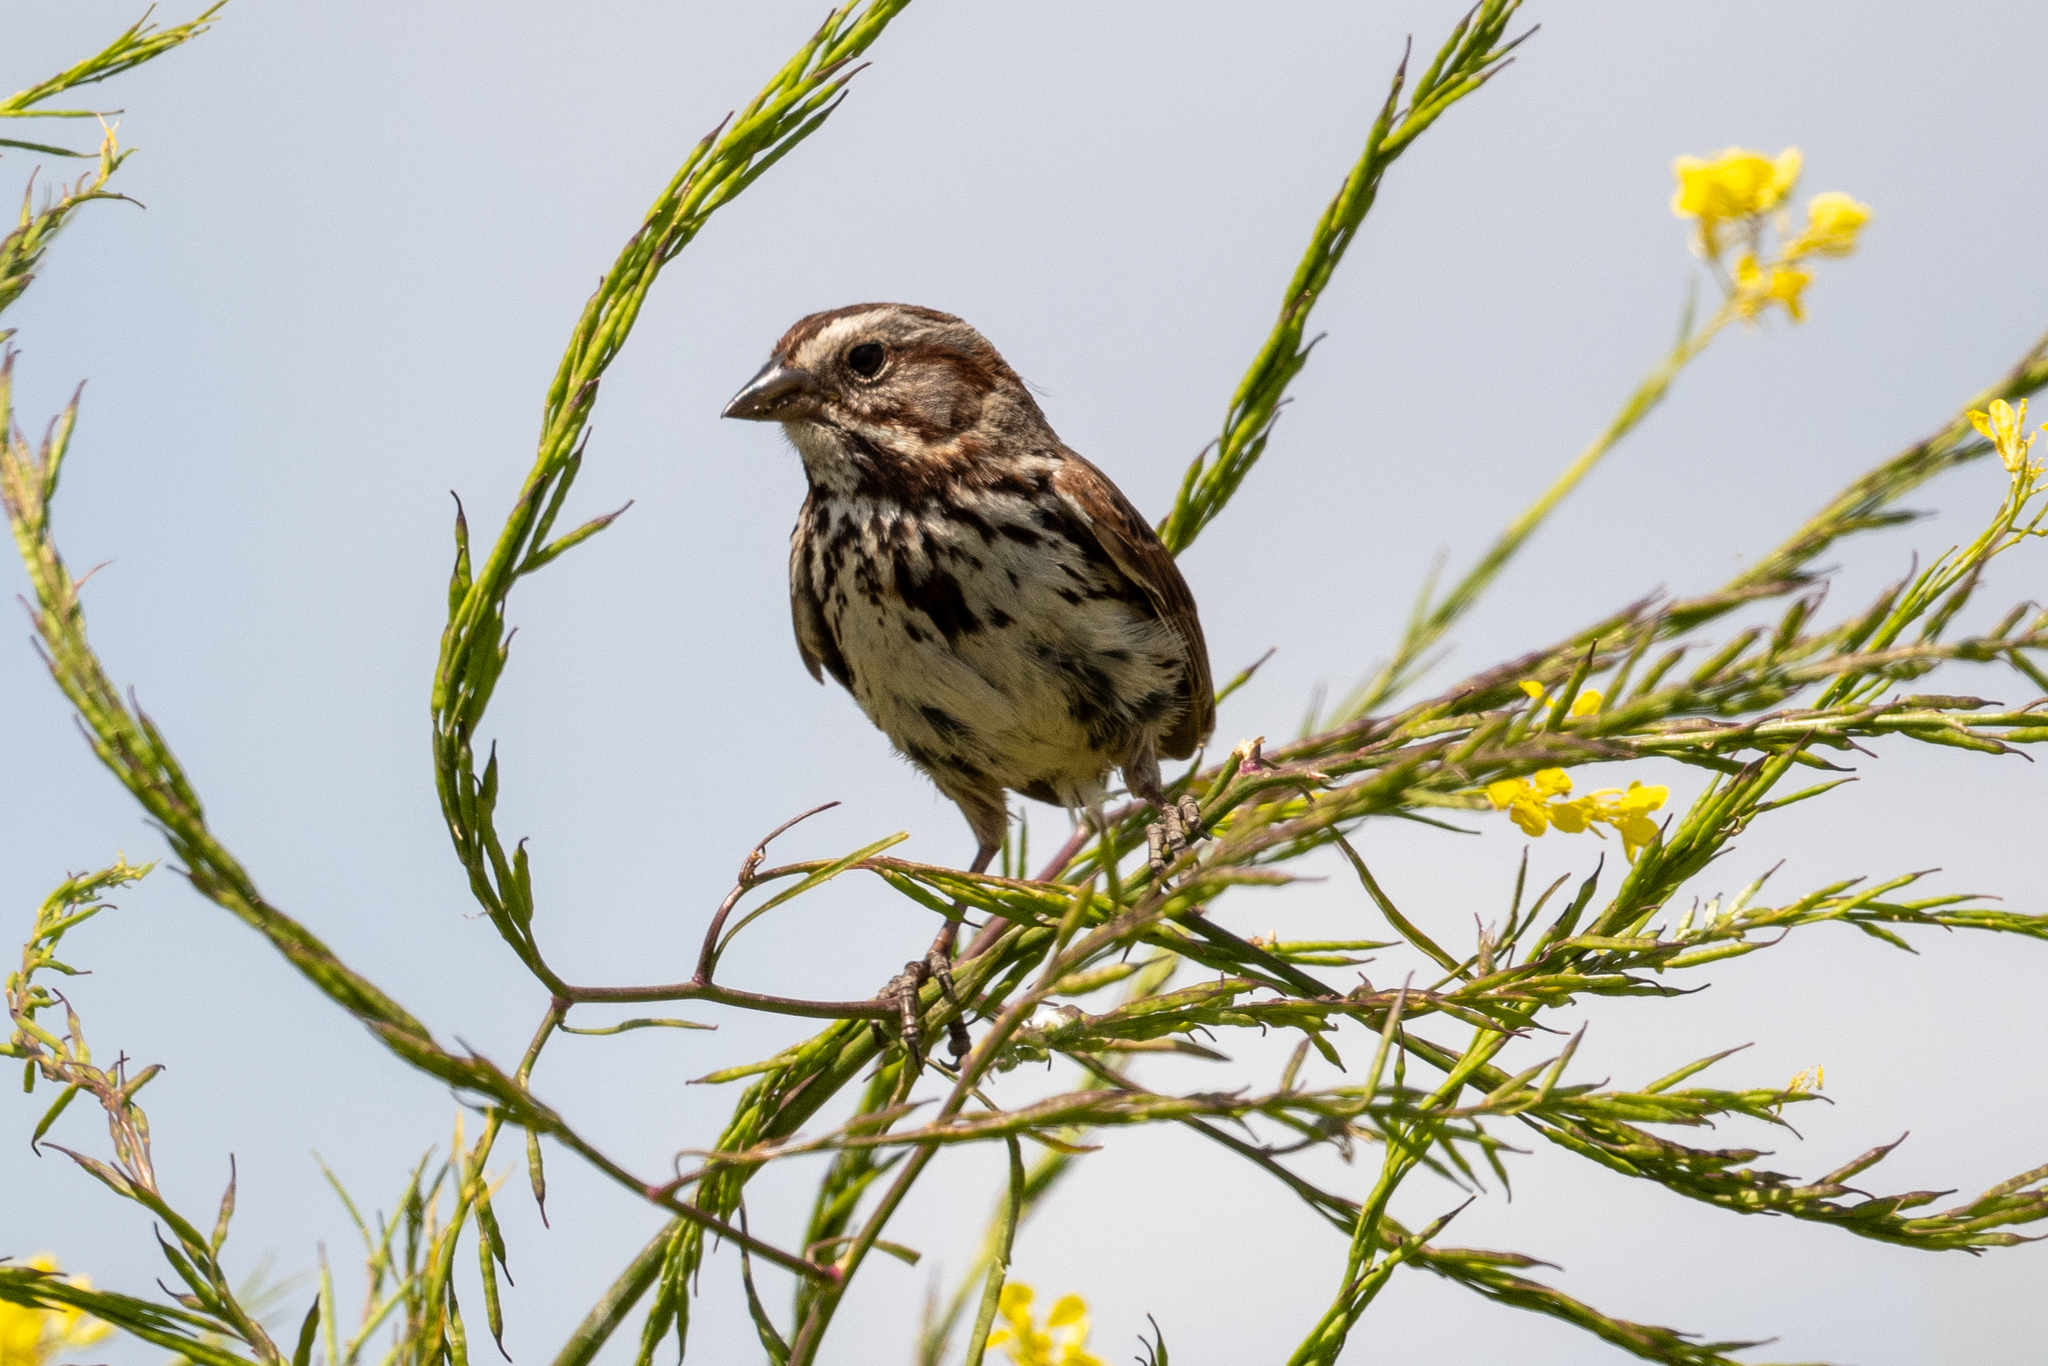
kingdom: Animalia
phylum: Chordata
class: Aves
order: Passeriformes
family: Passerellidae
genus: Melospiza
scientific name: Melospiza melodia
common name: Song sparrow
